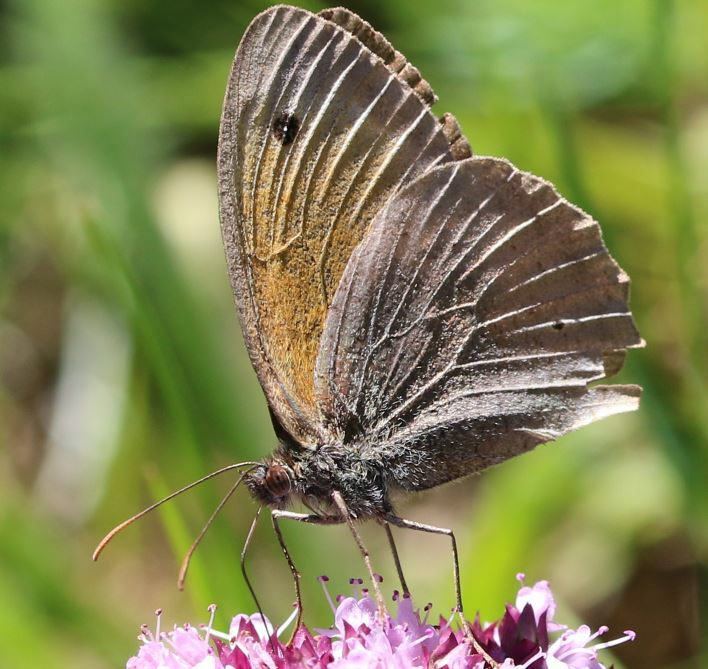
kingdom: Animalia
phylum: Arthropoda
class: Insecta
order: Lepidoptera
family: Nymphalidae
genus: Maniola
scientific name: Maniola jurtina
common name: Meadow brown
